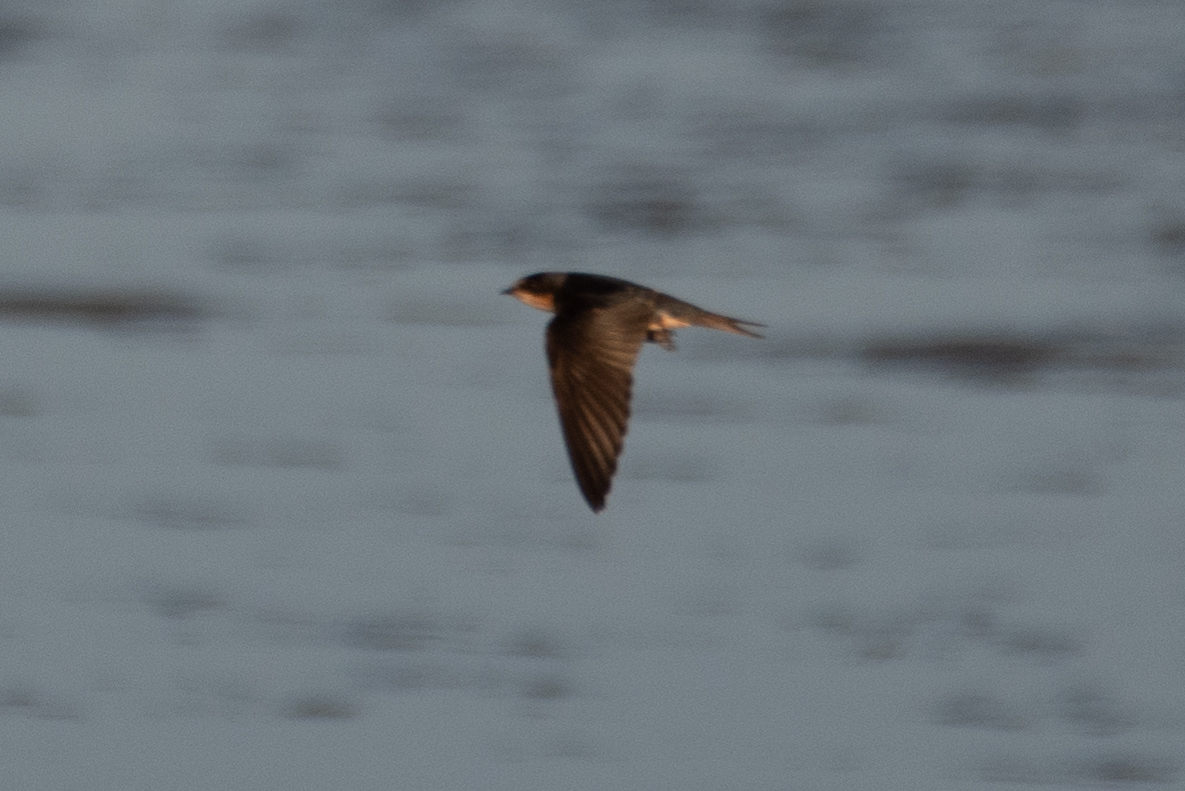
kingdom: Animalia
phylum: Chordata
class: Aves
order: Passeriformes
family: Hirundinidae
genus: Hirundo
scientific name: Hirundo rustica
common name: Barn swallow
